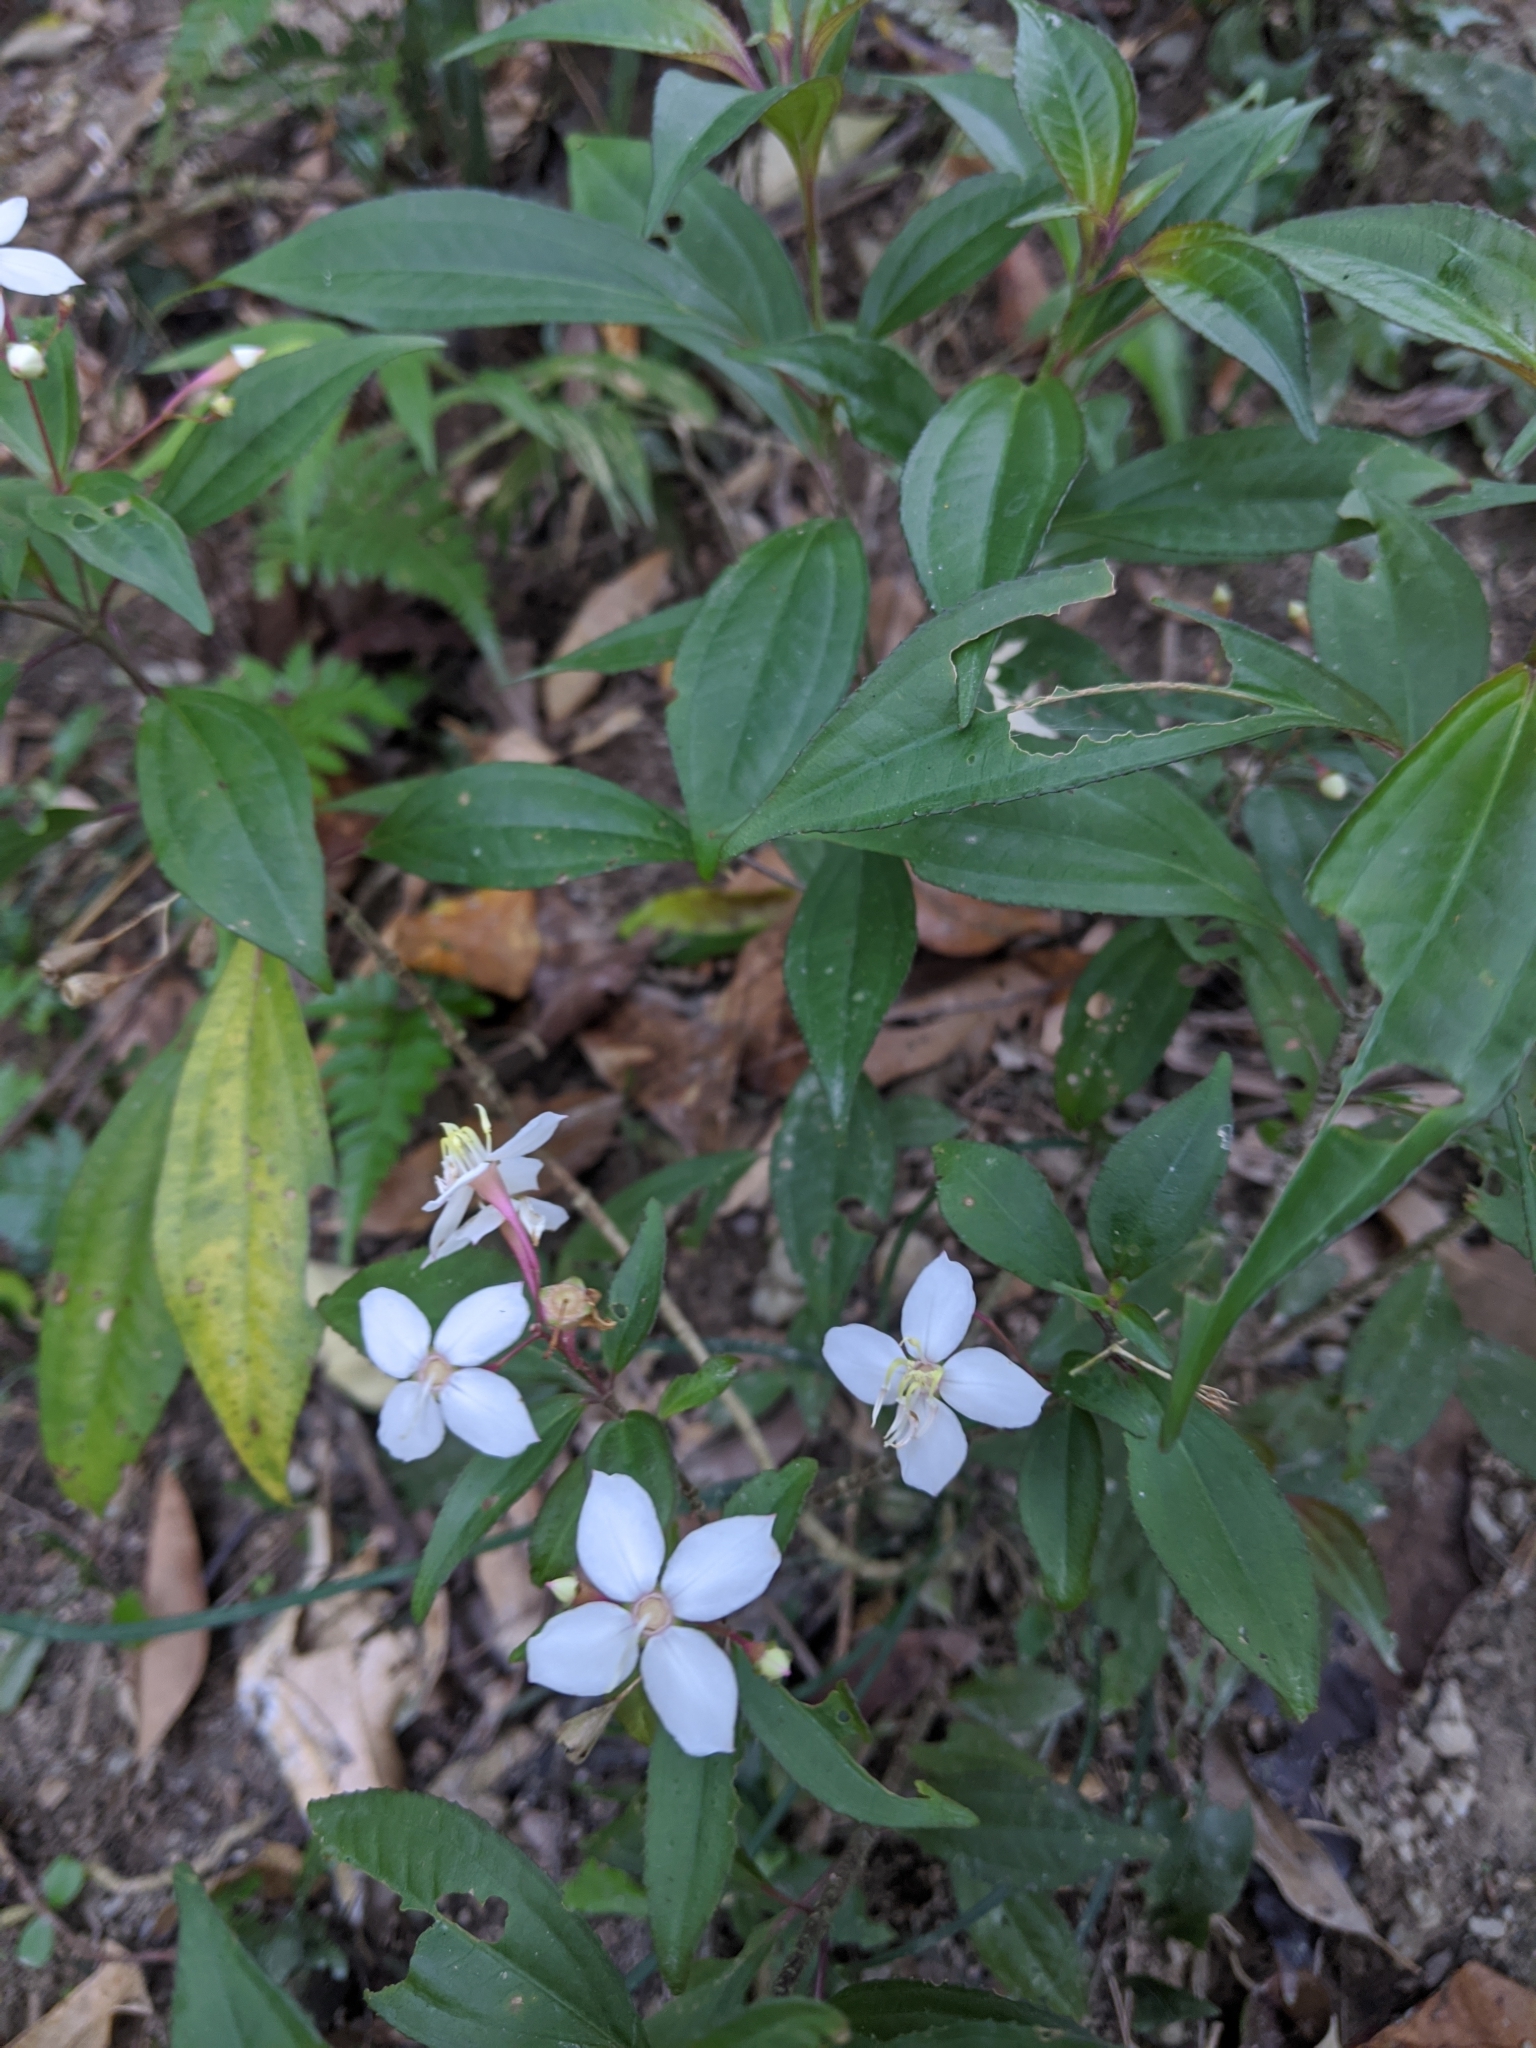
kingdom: Plantae
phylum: Tracheophyta
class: Magnoliopsida
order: Myrtales
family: Melastomataceae
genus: Bredia
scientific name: Bredia oldhamii
